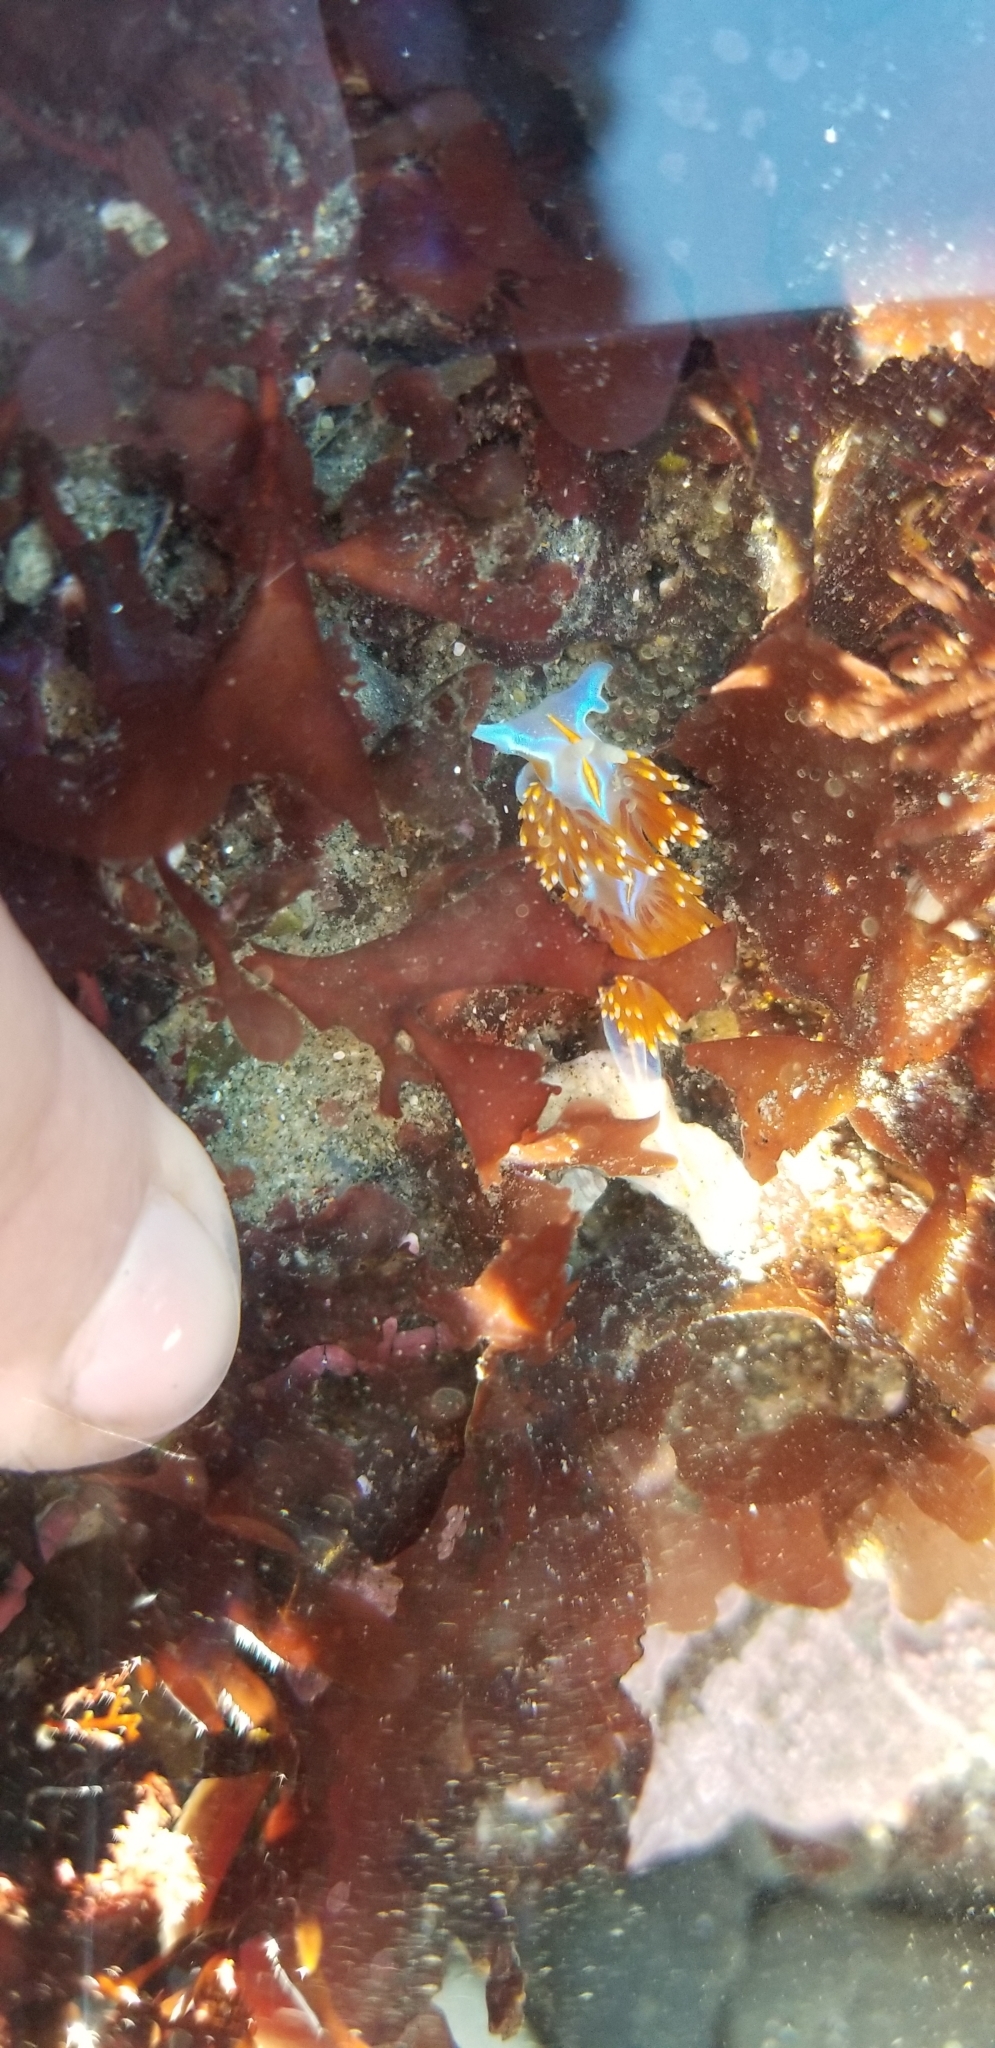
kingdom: Animalia
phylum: Mollusca
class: Gastropoda
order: Nudibranchia
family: Myrrhinidae
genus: Hermissenda
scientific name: Hermissenda opalescens
